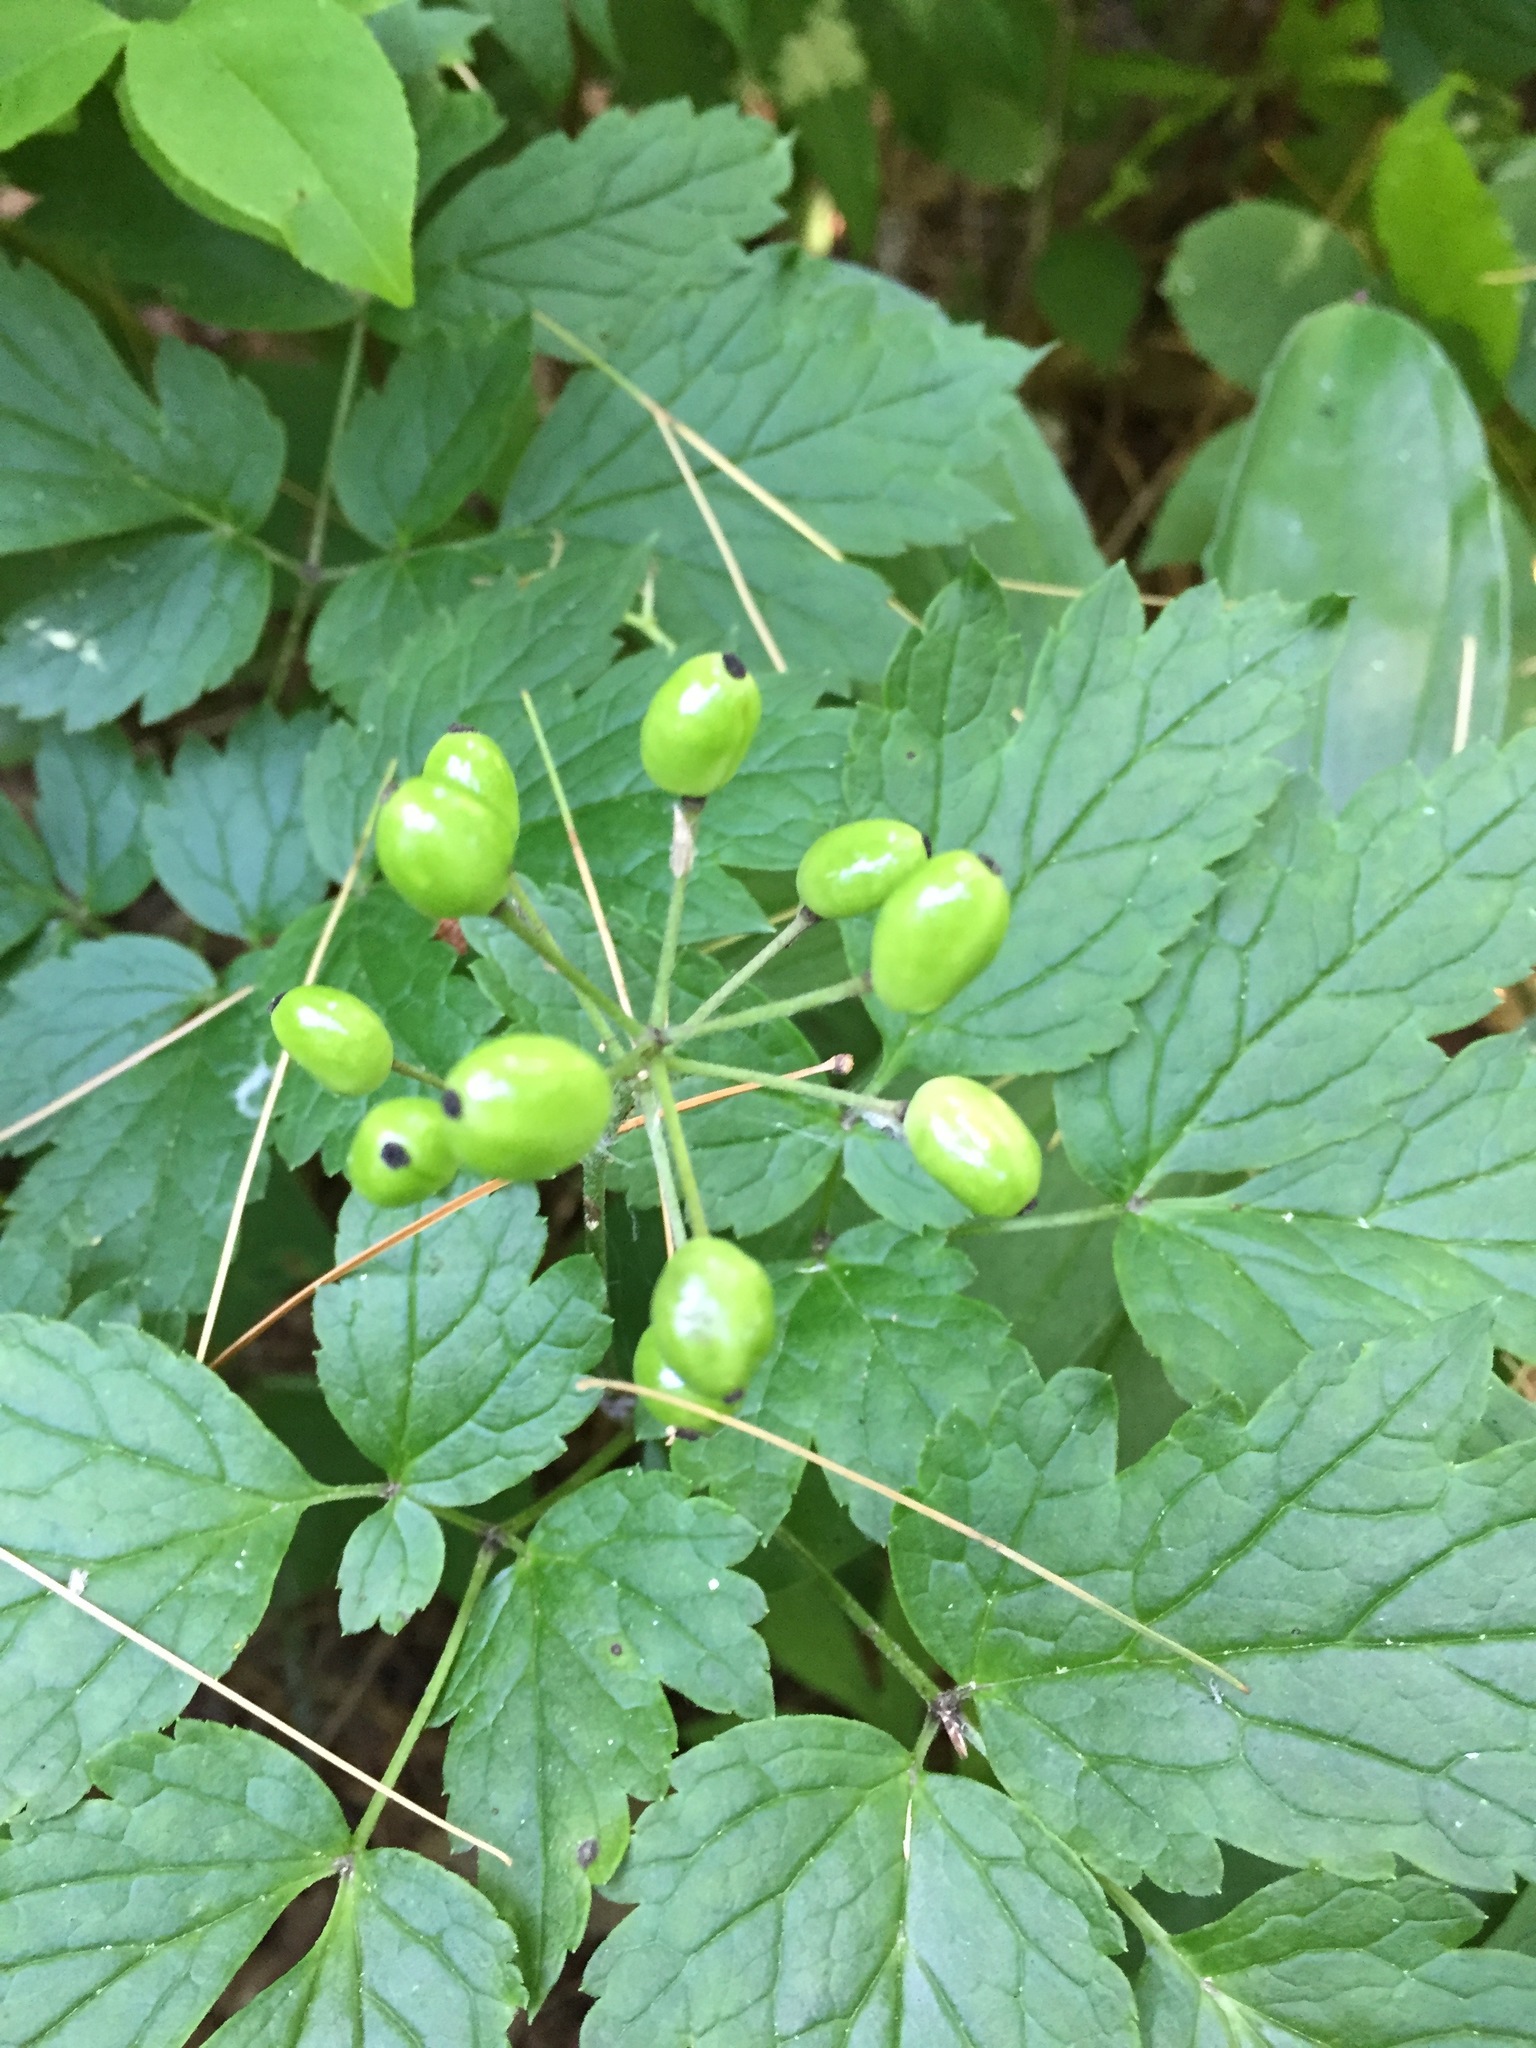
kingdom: Plantae
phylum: Tracheophyta
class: Magnoliopsida
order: Ranunculales
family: Ranunculaceae
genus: Actaea
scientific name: Actaea rubra
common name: Red baneberry
